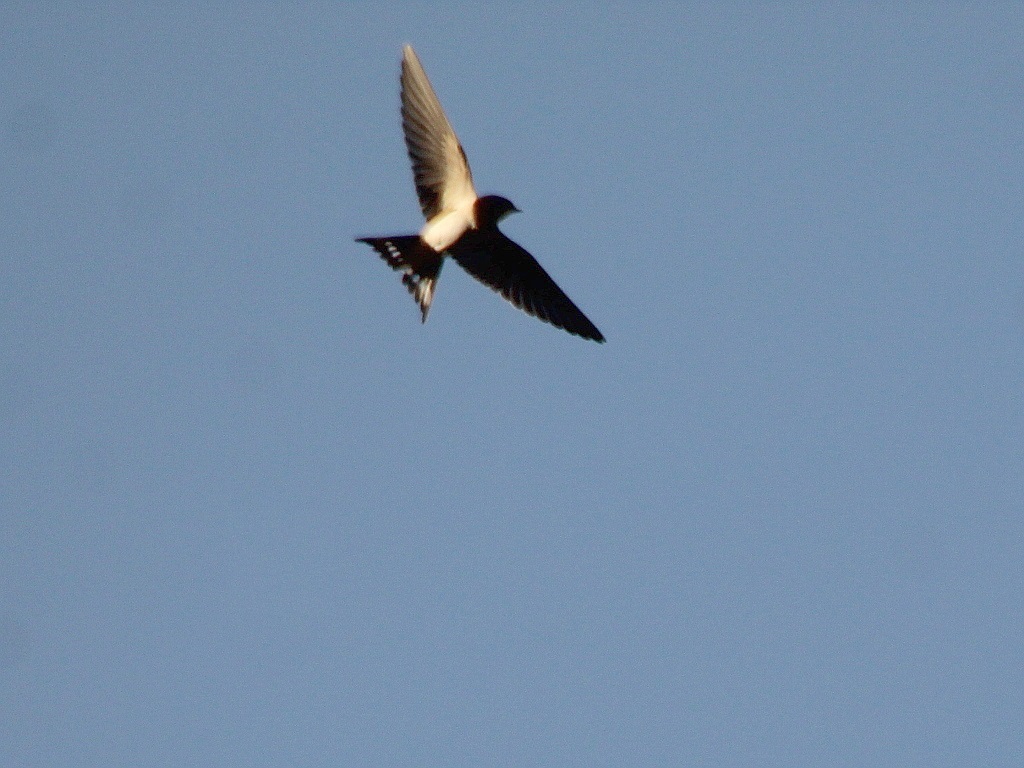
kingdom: Animalia
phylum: Chordata
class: Aves
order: Passeriformes
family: Hirundinidae
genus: Hirundo
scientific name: Hirundo rustica
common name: Barn swallow
